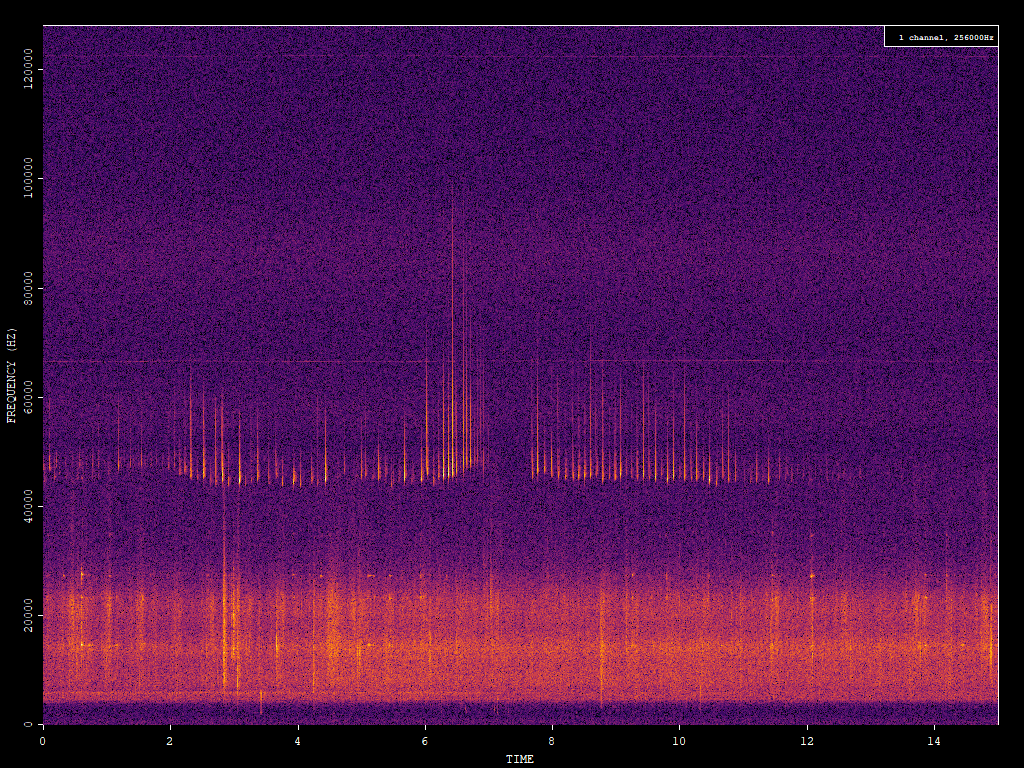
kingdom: Animalia
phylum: Chordata
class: Mammalia
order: Chiroptera
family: Vespertilionidae
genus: Pipistrellus
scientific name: Pipistrellus pipistrellus
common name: Common pipistrelle
